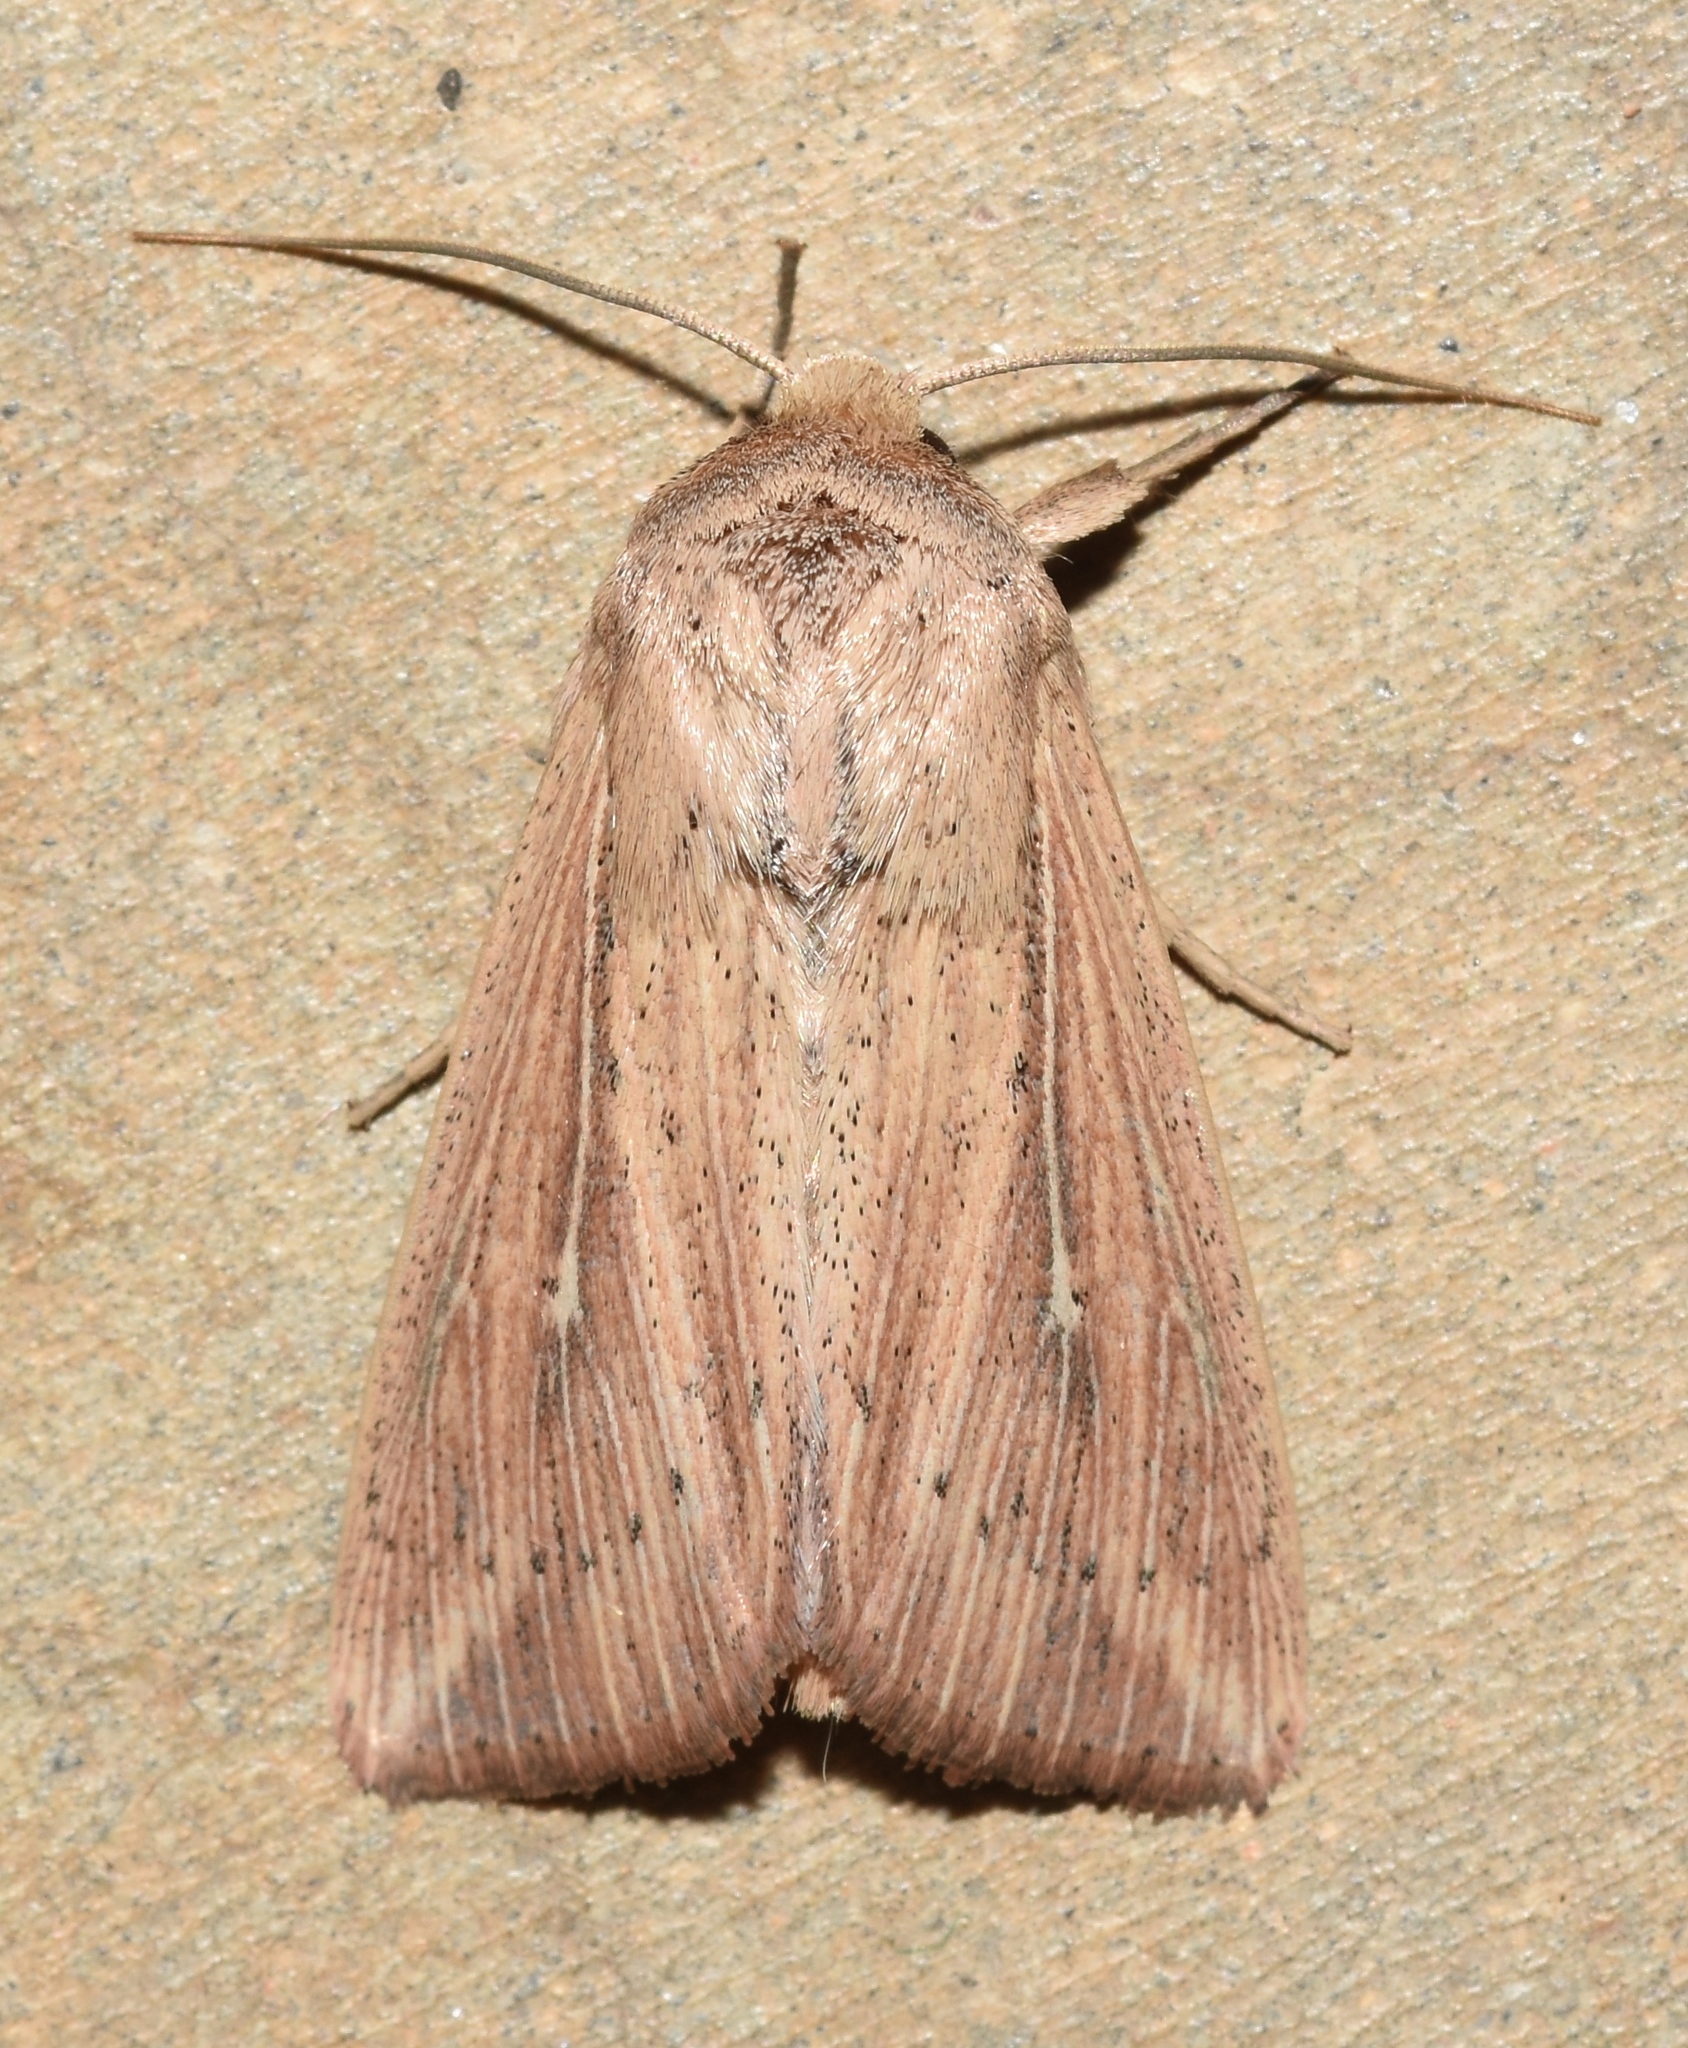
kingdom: Animalia
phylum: Arthropoda
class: Insecta
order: Lepidoptera
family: Noctuidae
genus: Leucania
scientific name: Leucania linda
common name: Linda's wainscot
